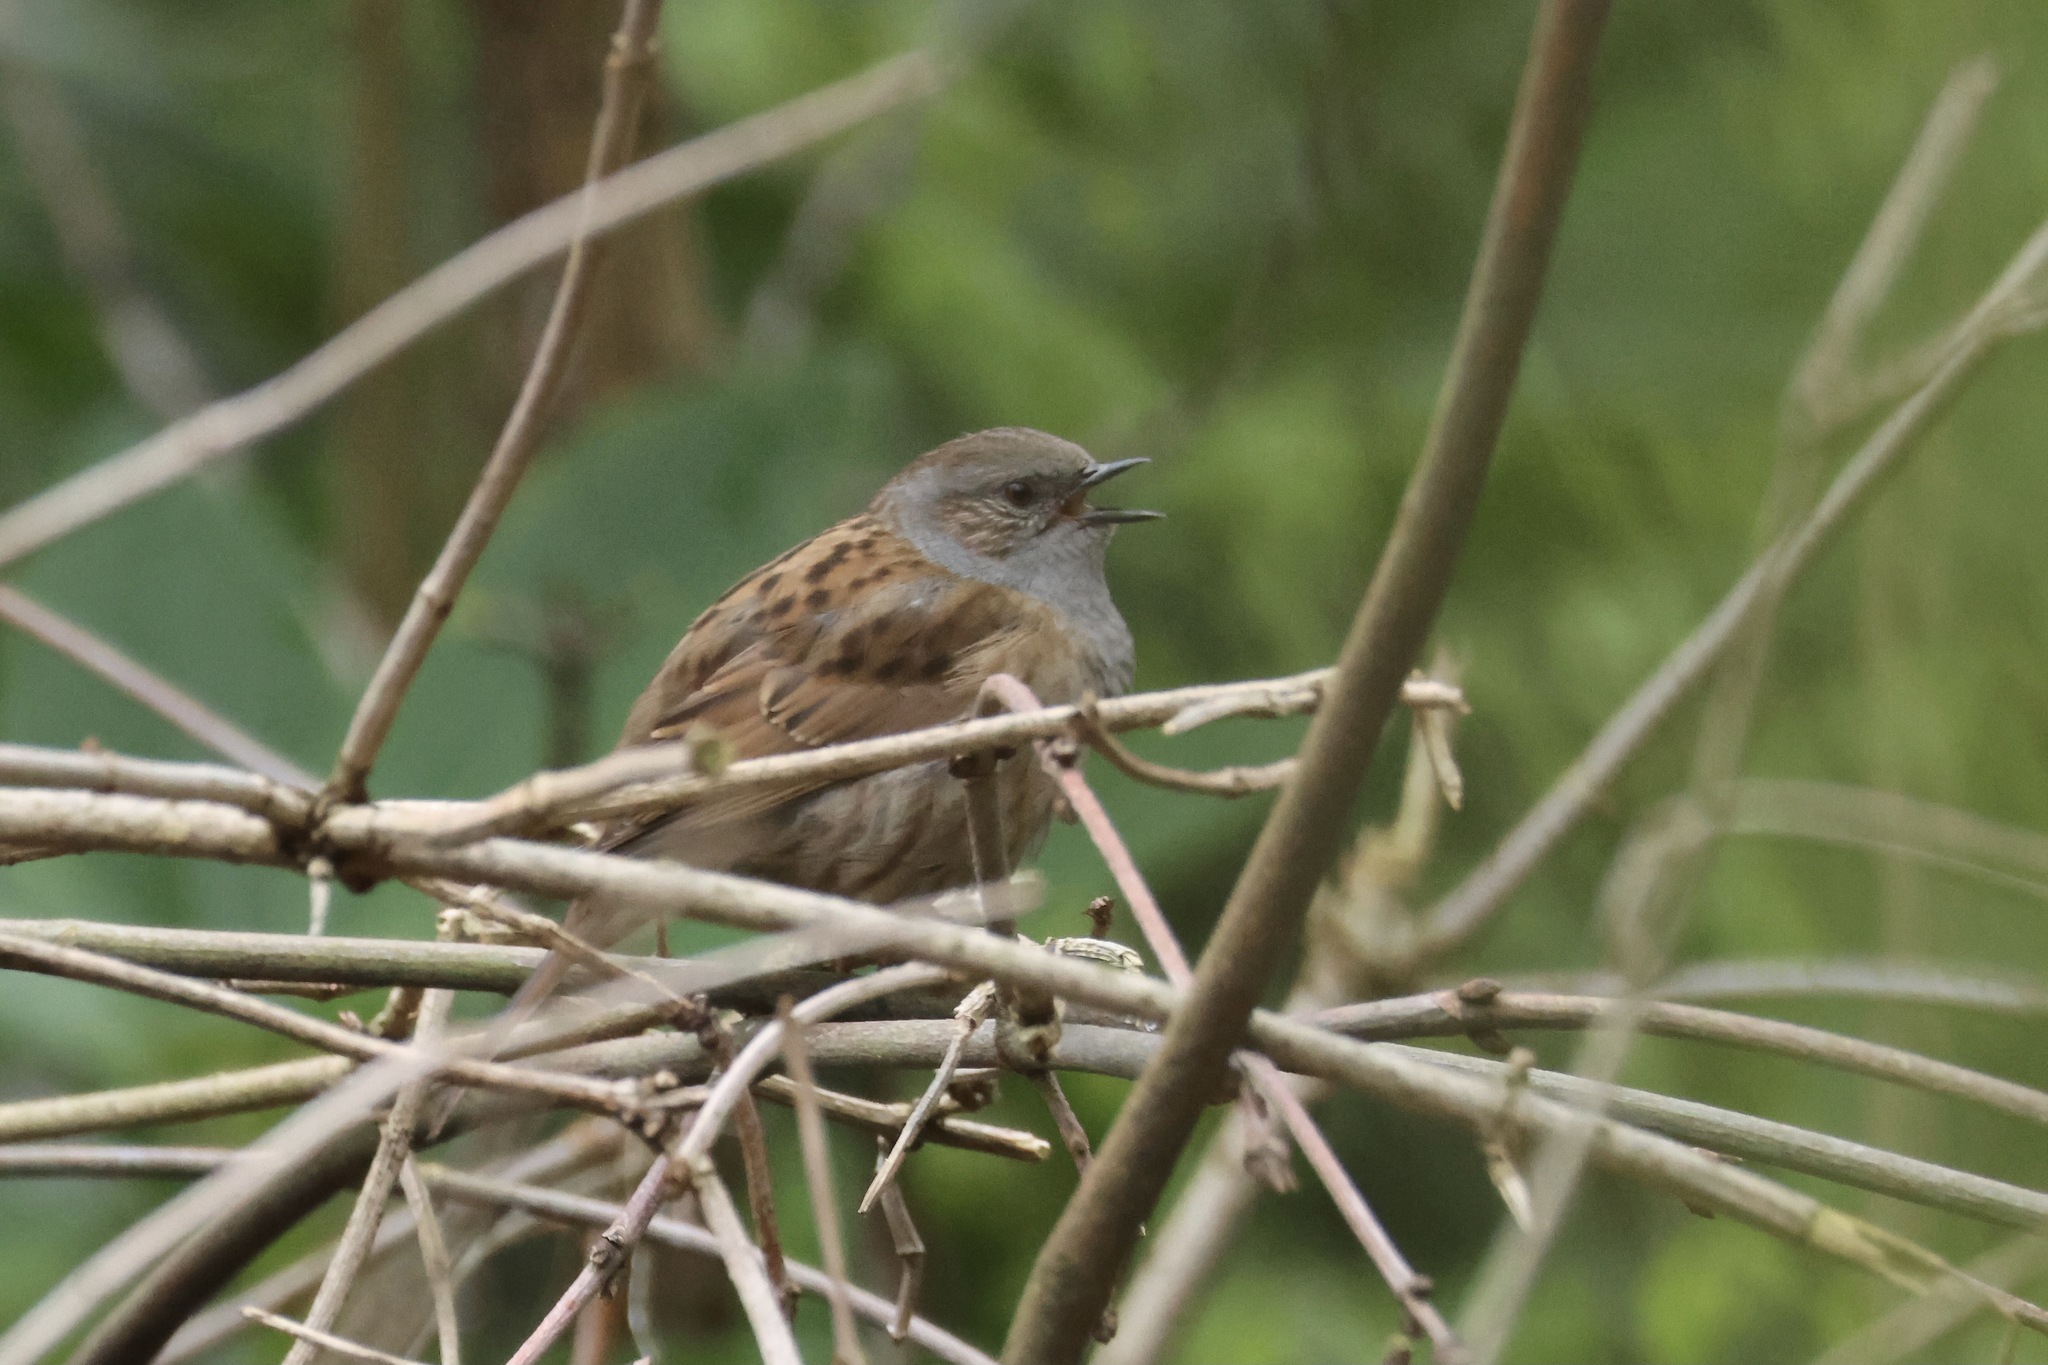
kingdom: Animalia
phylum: Chordata
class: Aves
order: Passeriformes
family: Prunellidae
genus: Prunella
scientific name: Prunella modularis
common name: Dunnock
